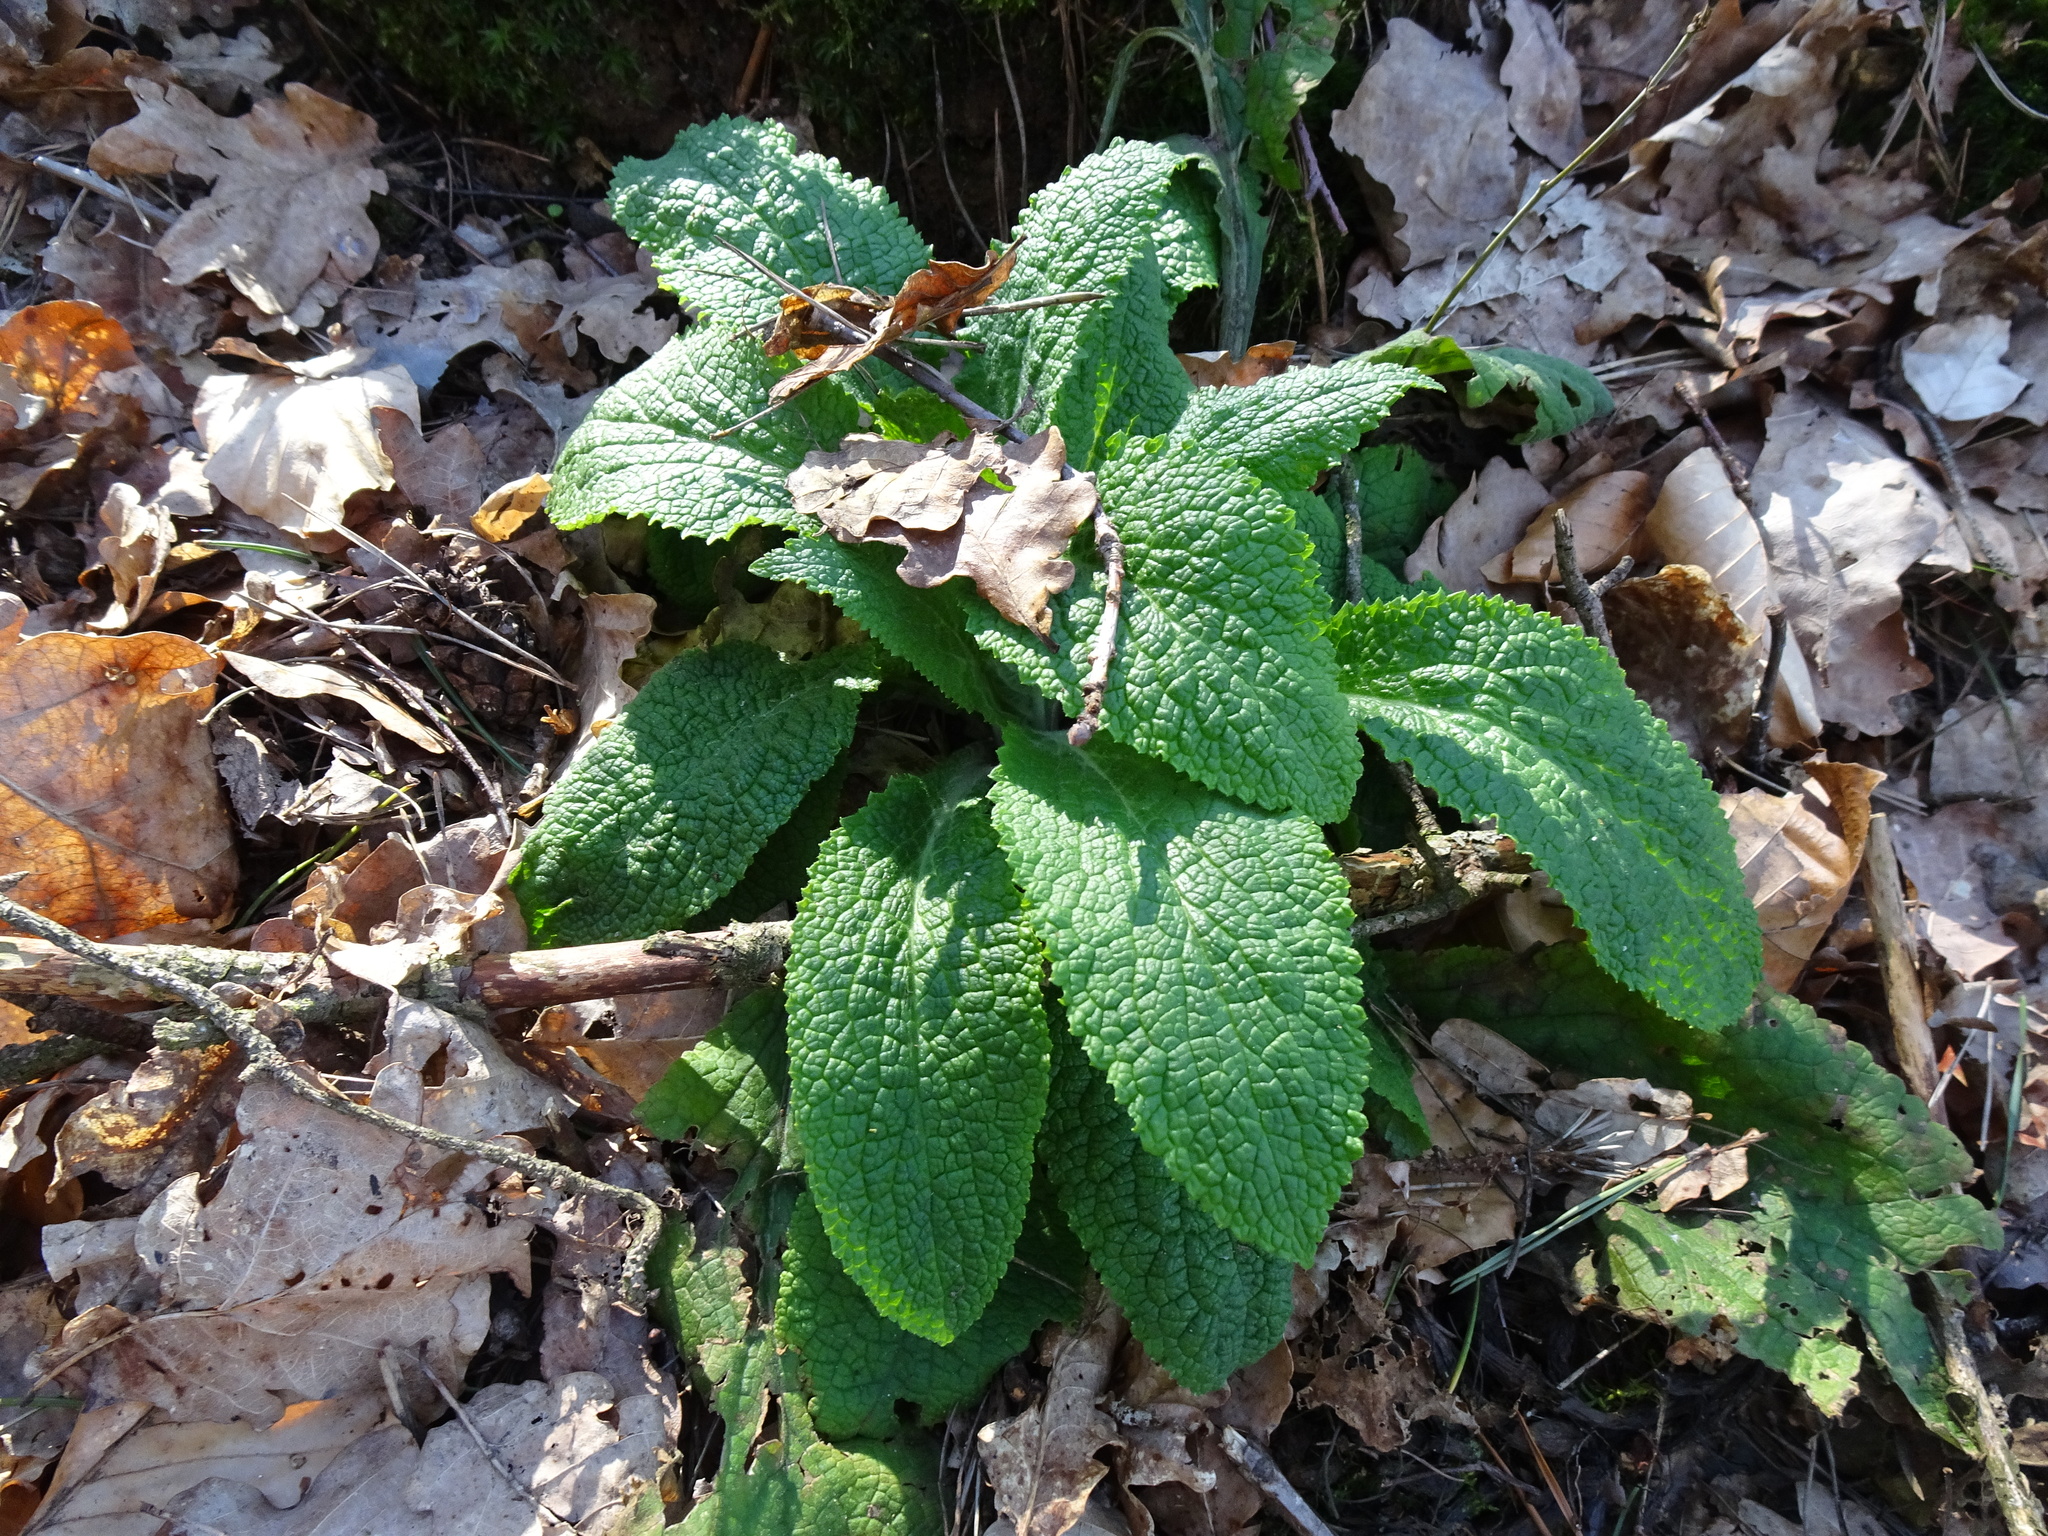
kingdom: Plantae
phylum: Tracheophyta
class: Magnoliopsida
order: Lamiales
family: Plantaginaceae
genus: Digitalis
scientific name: Digitalis purpurea
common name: Foxglove
